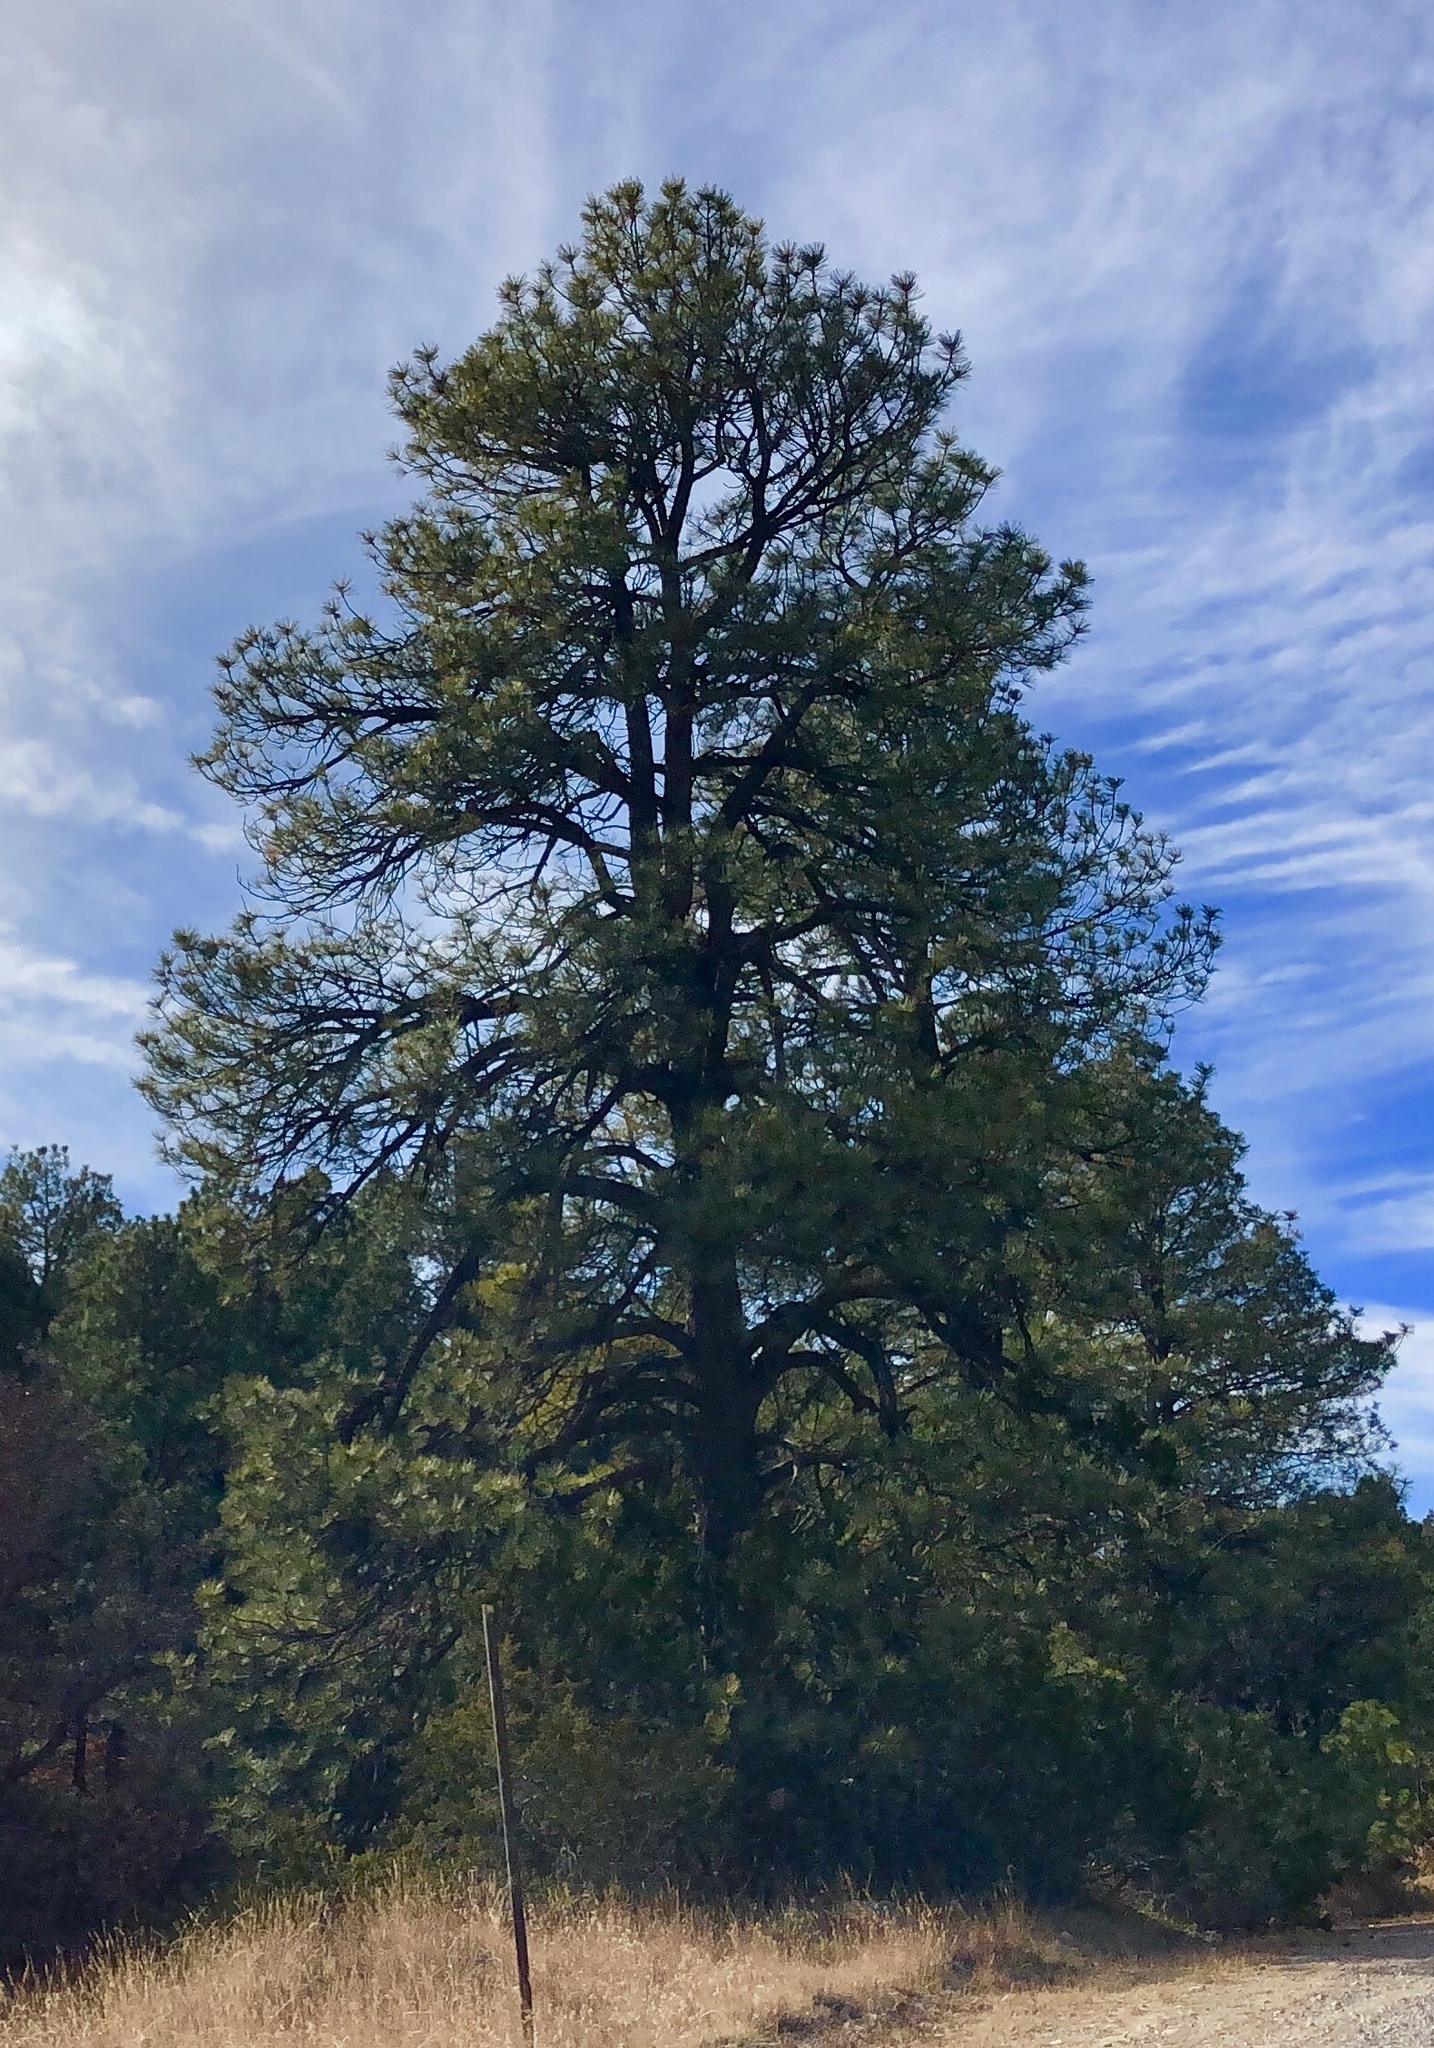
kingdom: Plantae
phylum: Tracheophyta
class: Pinopsida
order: Pinales
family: Pinaceae
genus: Pinus
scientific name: Pinus ponderosa
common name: Western yellow-pine
